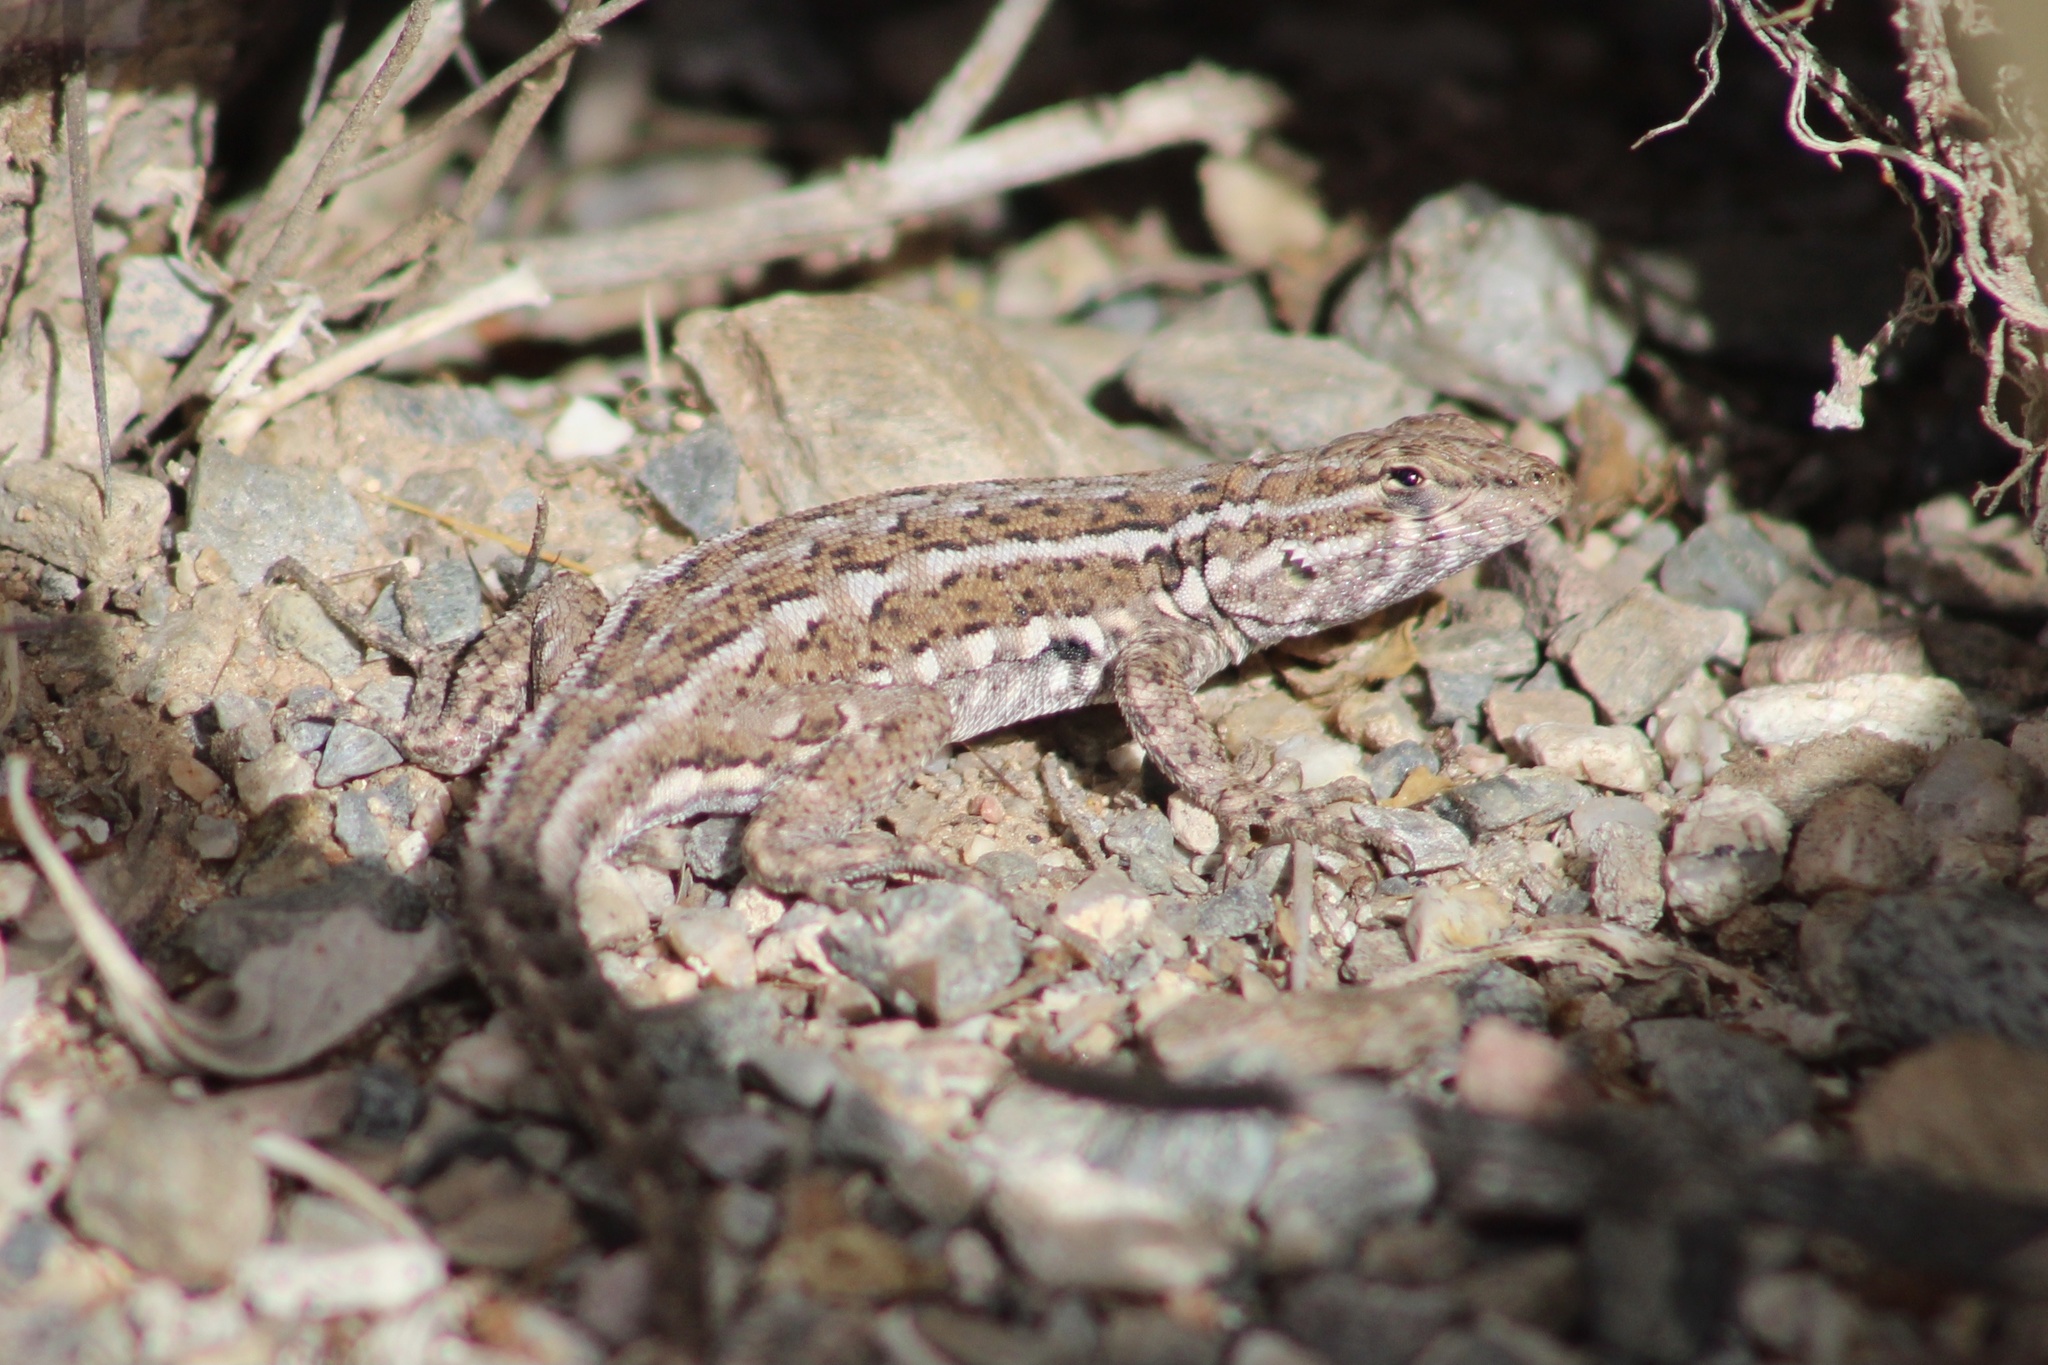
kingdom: Animalia
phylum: Chordata
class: Squamata
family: Phrynosomatidae
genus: Uta
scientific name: Uta stansburiana
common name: Side-blotched lizard
